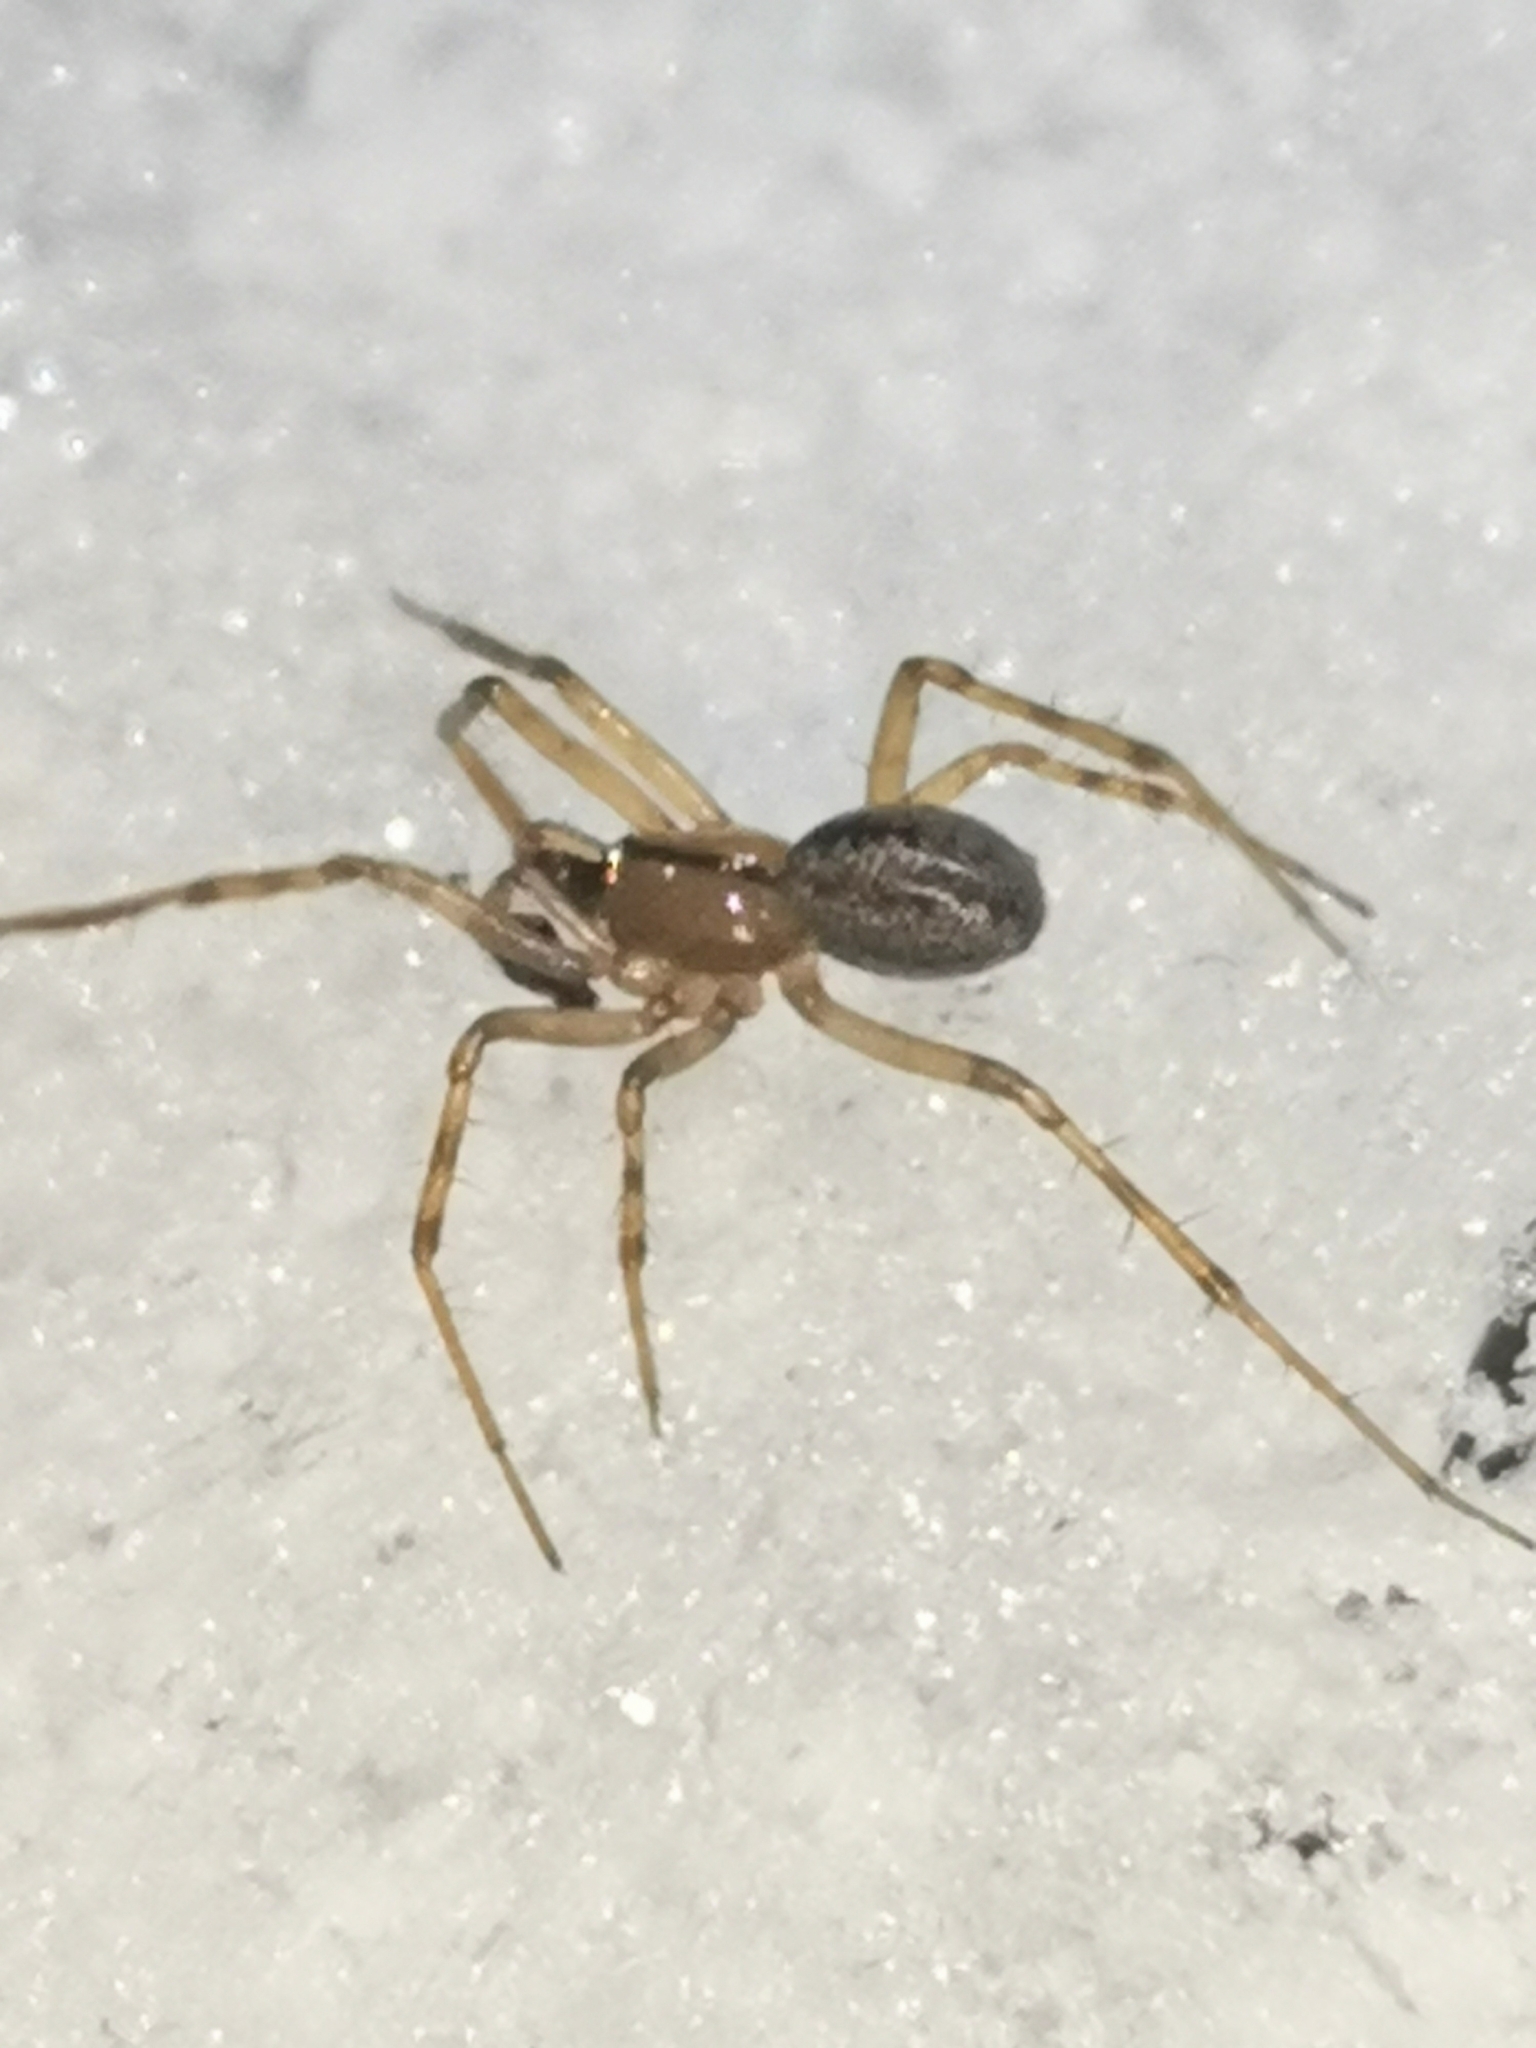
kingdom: Animalia
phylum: Arthropoda
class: Arachnida
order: Araneae
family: Linyphiidae
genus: Stemonyphantes
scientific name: Stemonyphantes lineatus
